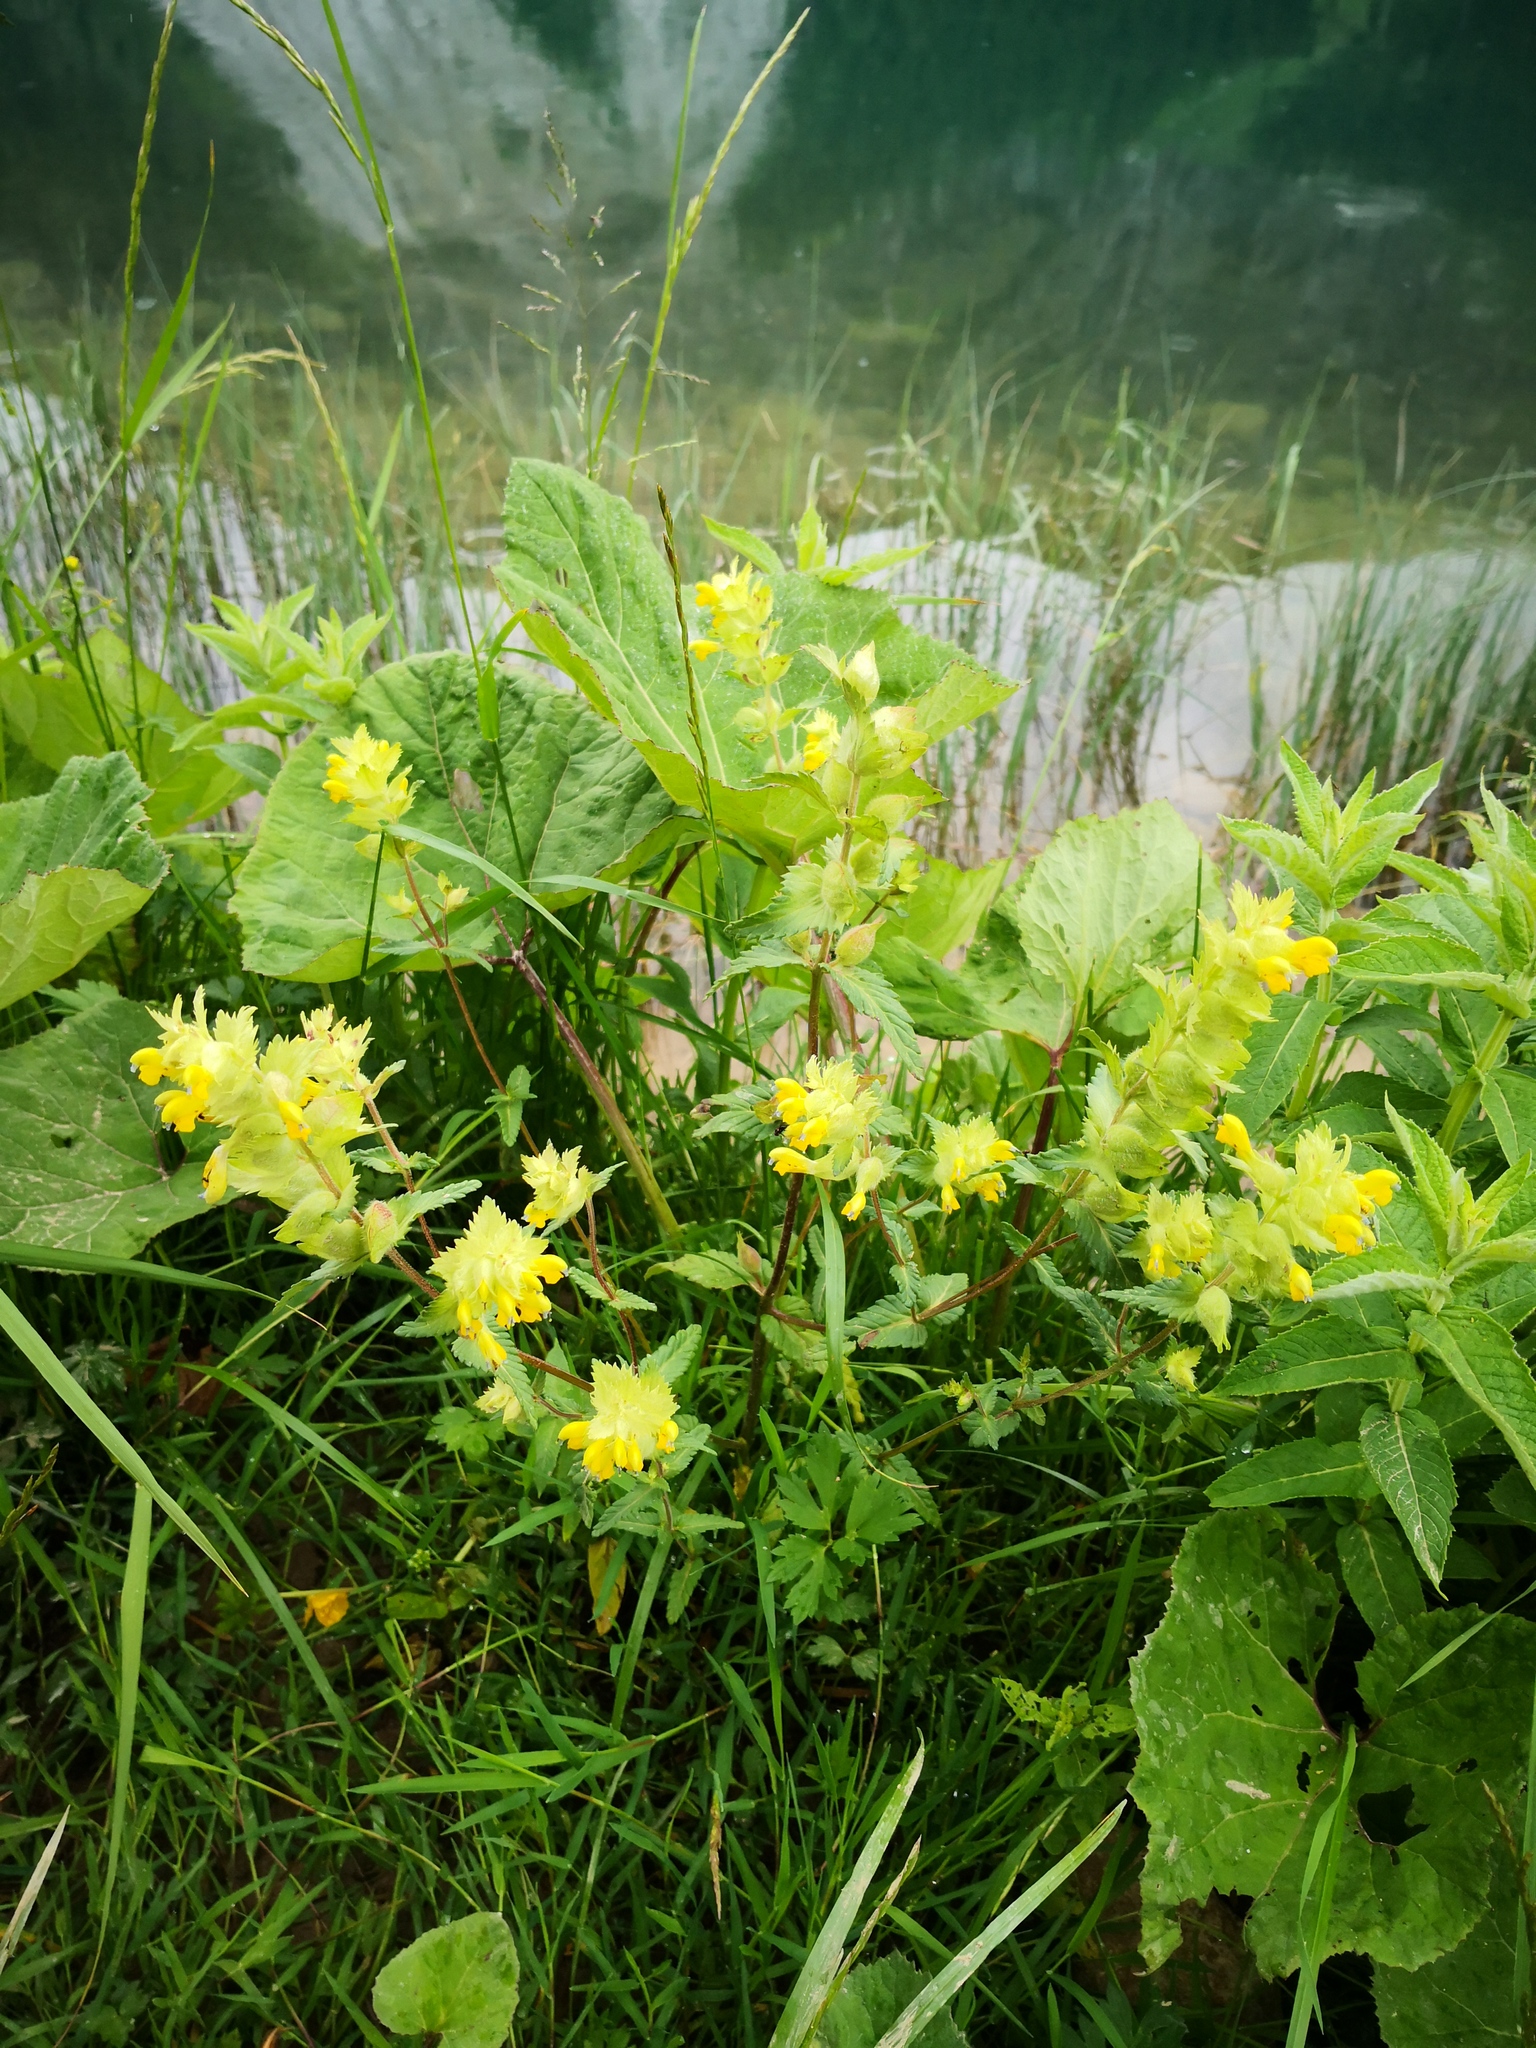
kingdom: Plantae
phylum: Tracheophyta
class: Magnoliopsida
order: Lamiales
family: Orobanchaceae
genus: Rhinanthus
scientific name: Rhinanthus alectorolophus
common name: Greater yellow-rattle
